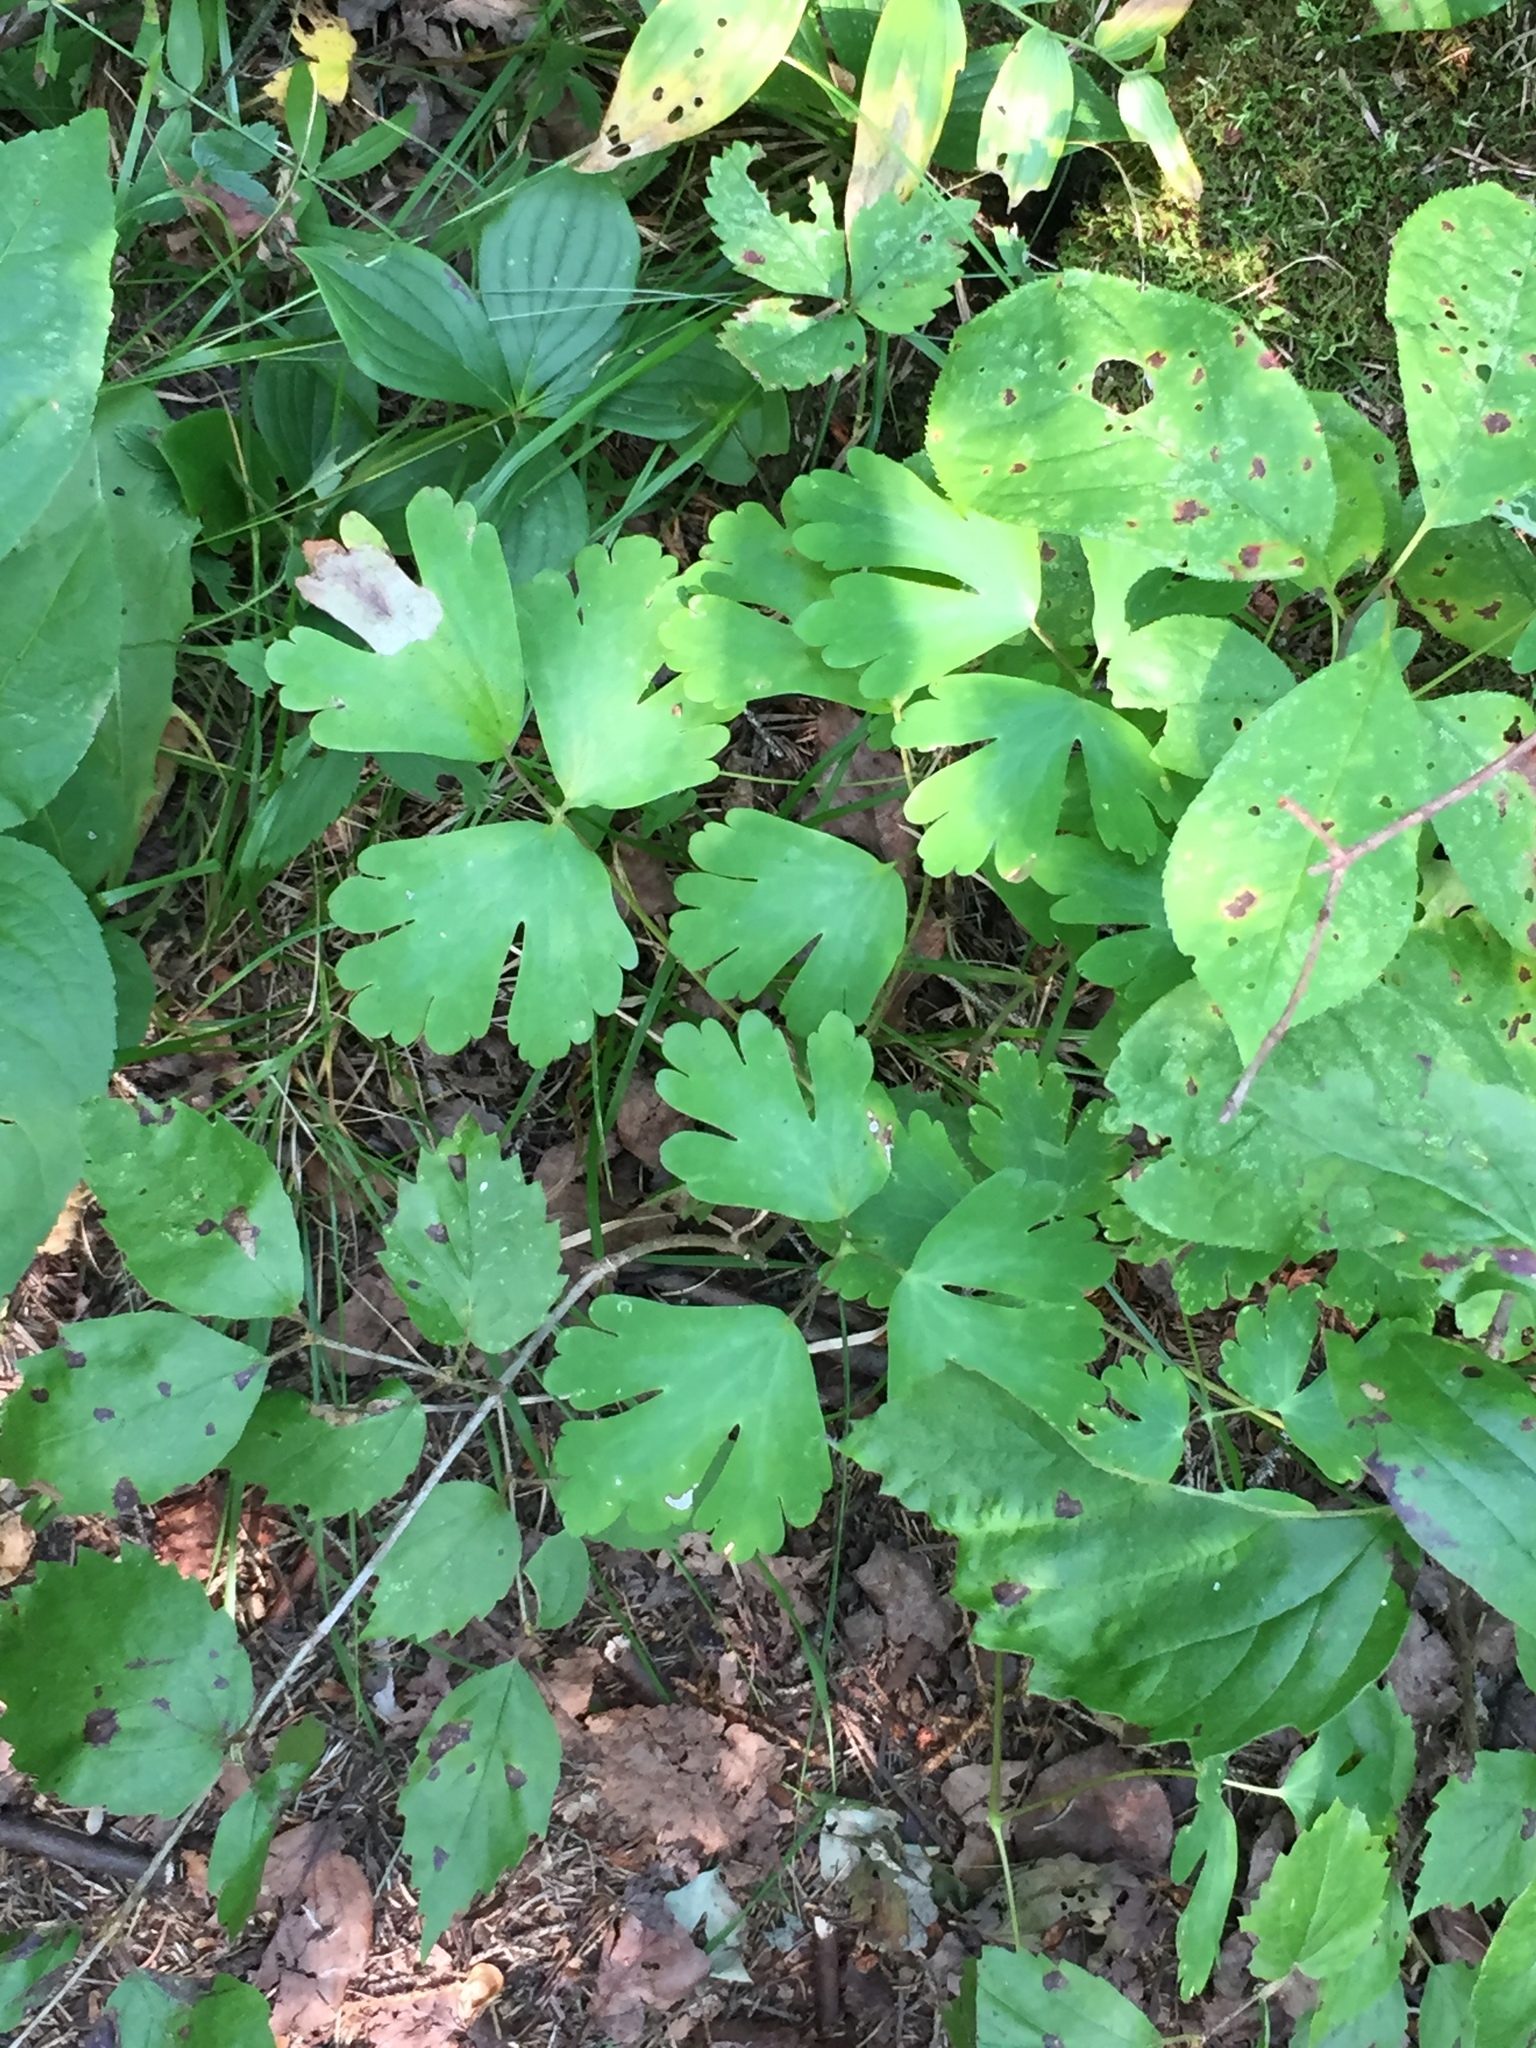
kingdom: Plantae
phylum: Tracheophyta
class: Magnoliopsida
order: Ranunculales
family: Ranunculaceae
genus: Aquilegia
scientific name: Aquilegia canadensis
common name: American columbine
